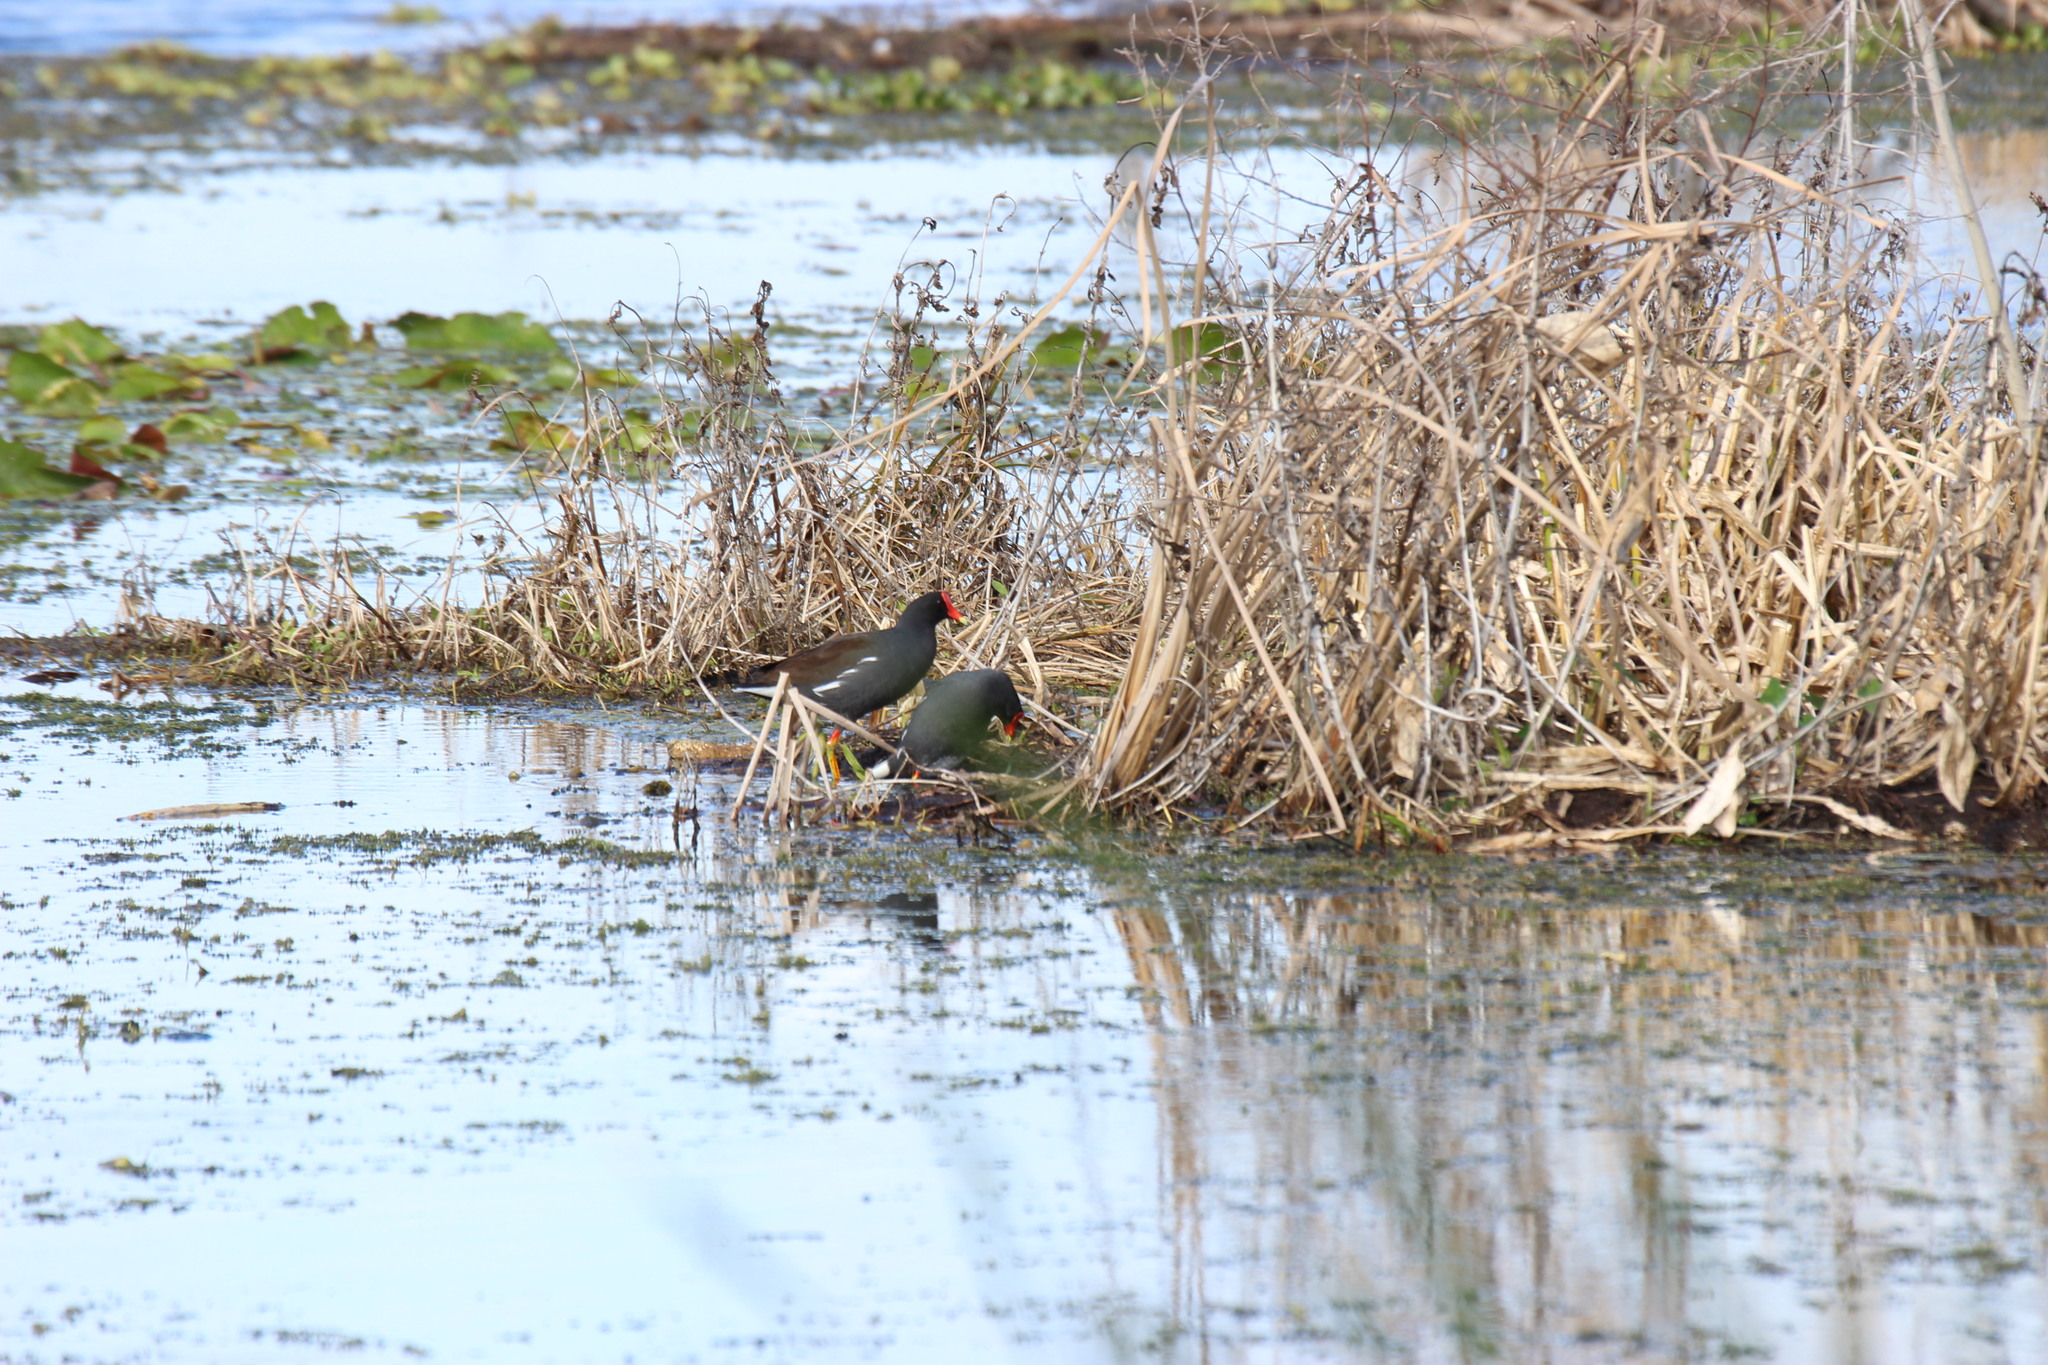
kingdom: Animalia
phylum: Chordata
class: Aves
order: Gruiformes
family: Rallidae
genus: Gallinula
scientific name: Gallinula chloropus
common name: Common moorhen
